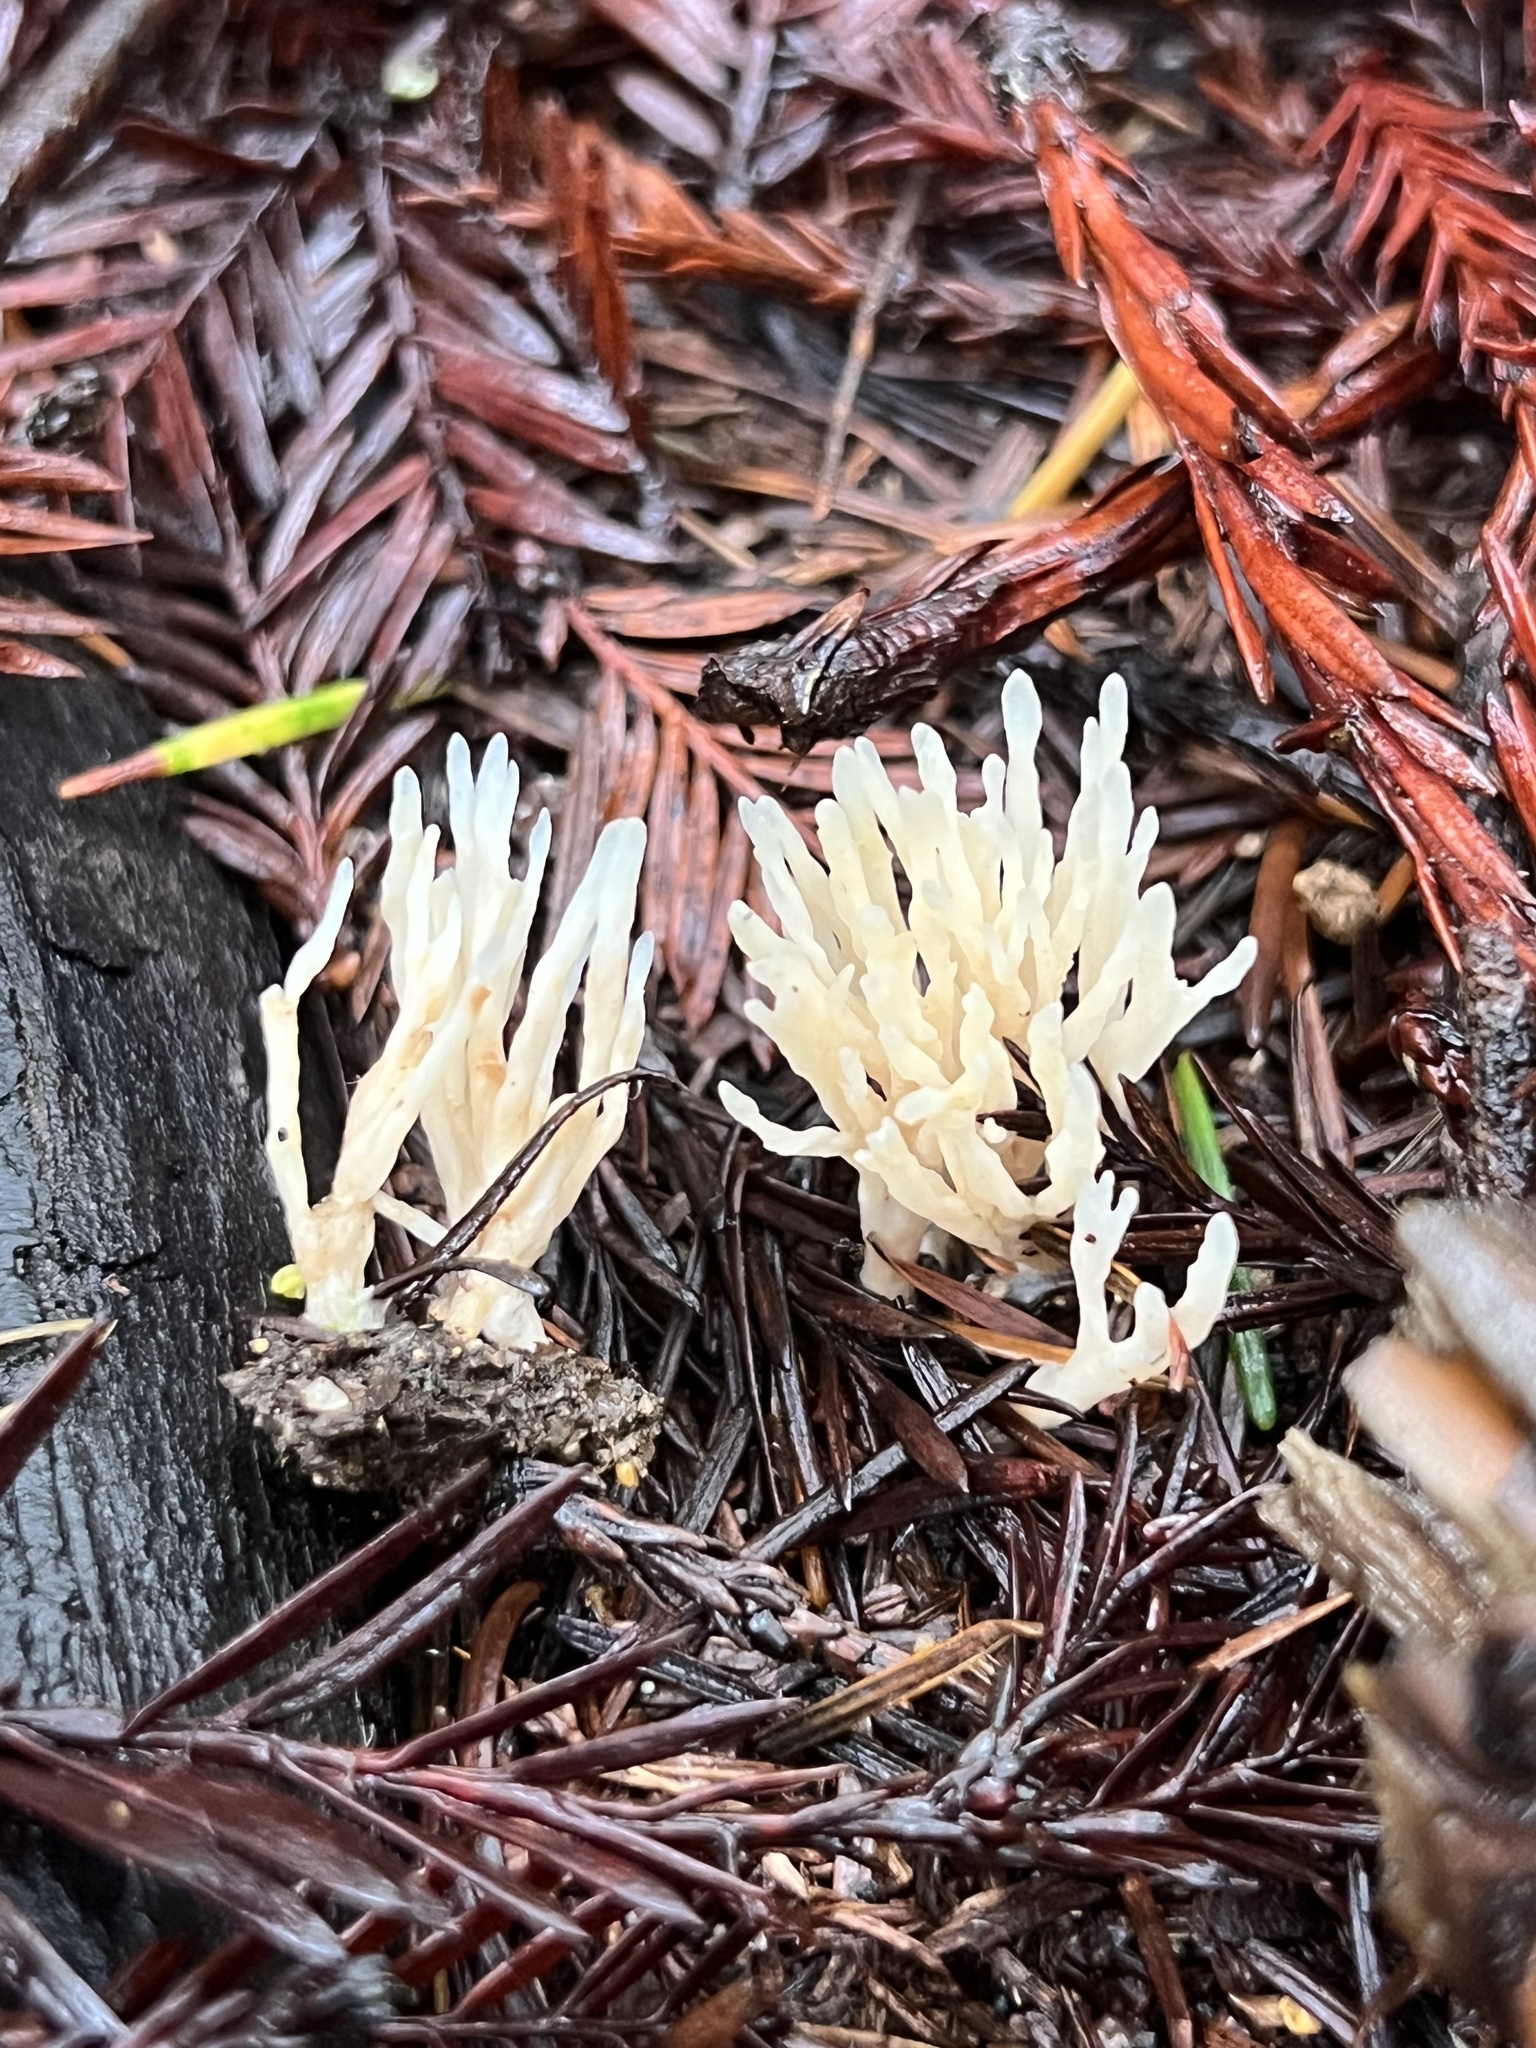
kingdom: Fungi
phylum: Basidiomycota
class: Agaricomycetes
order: Tremellodendropsidales
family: Tremellodendropsidaceae
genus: Tremellodendropsis
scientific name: Tremellodendropsis tuberosa
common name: Ashen coral
